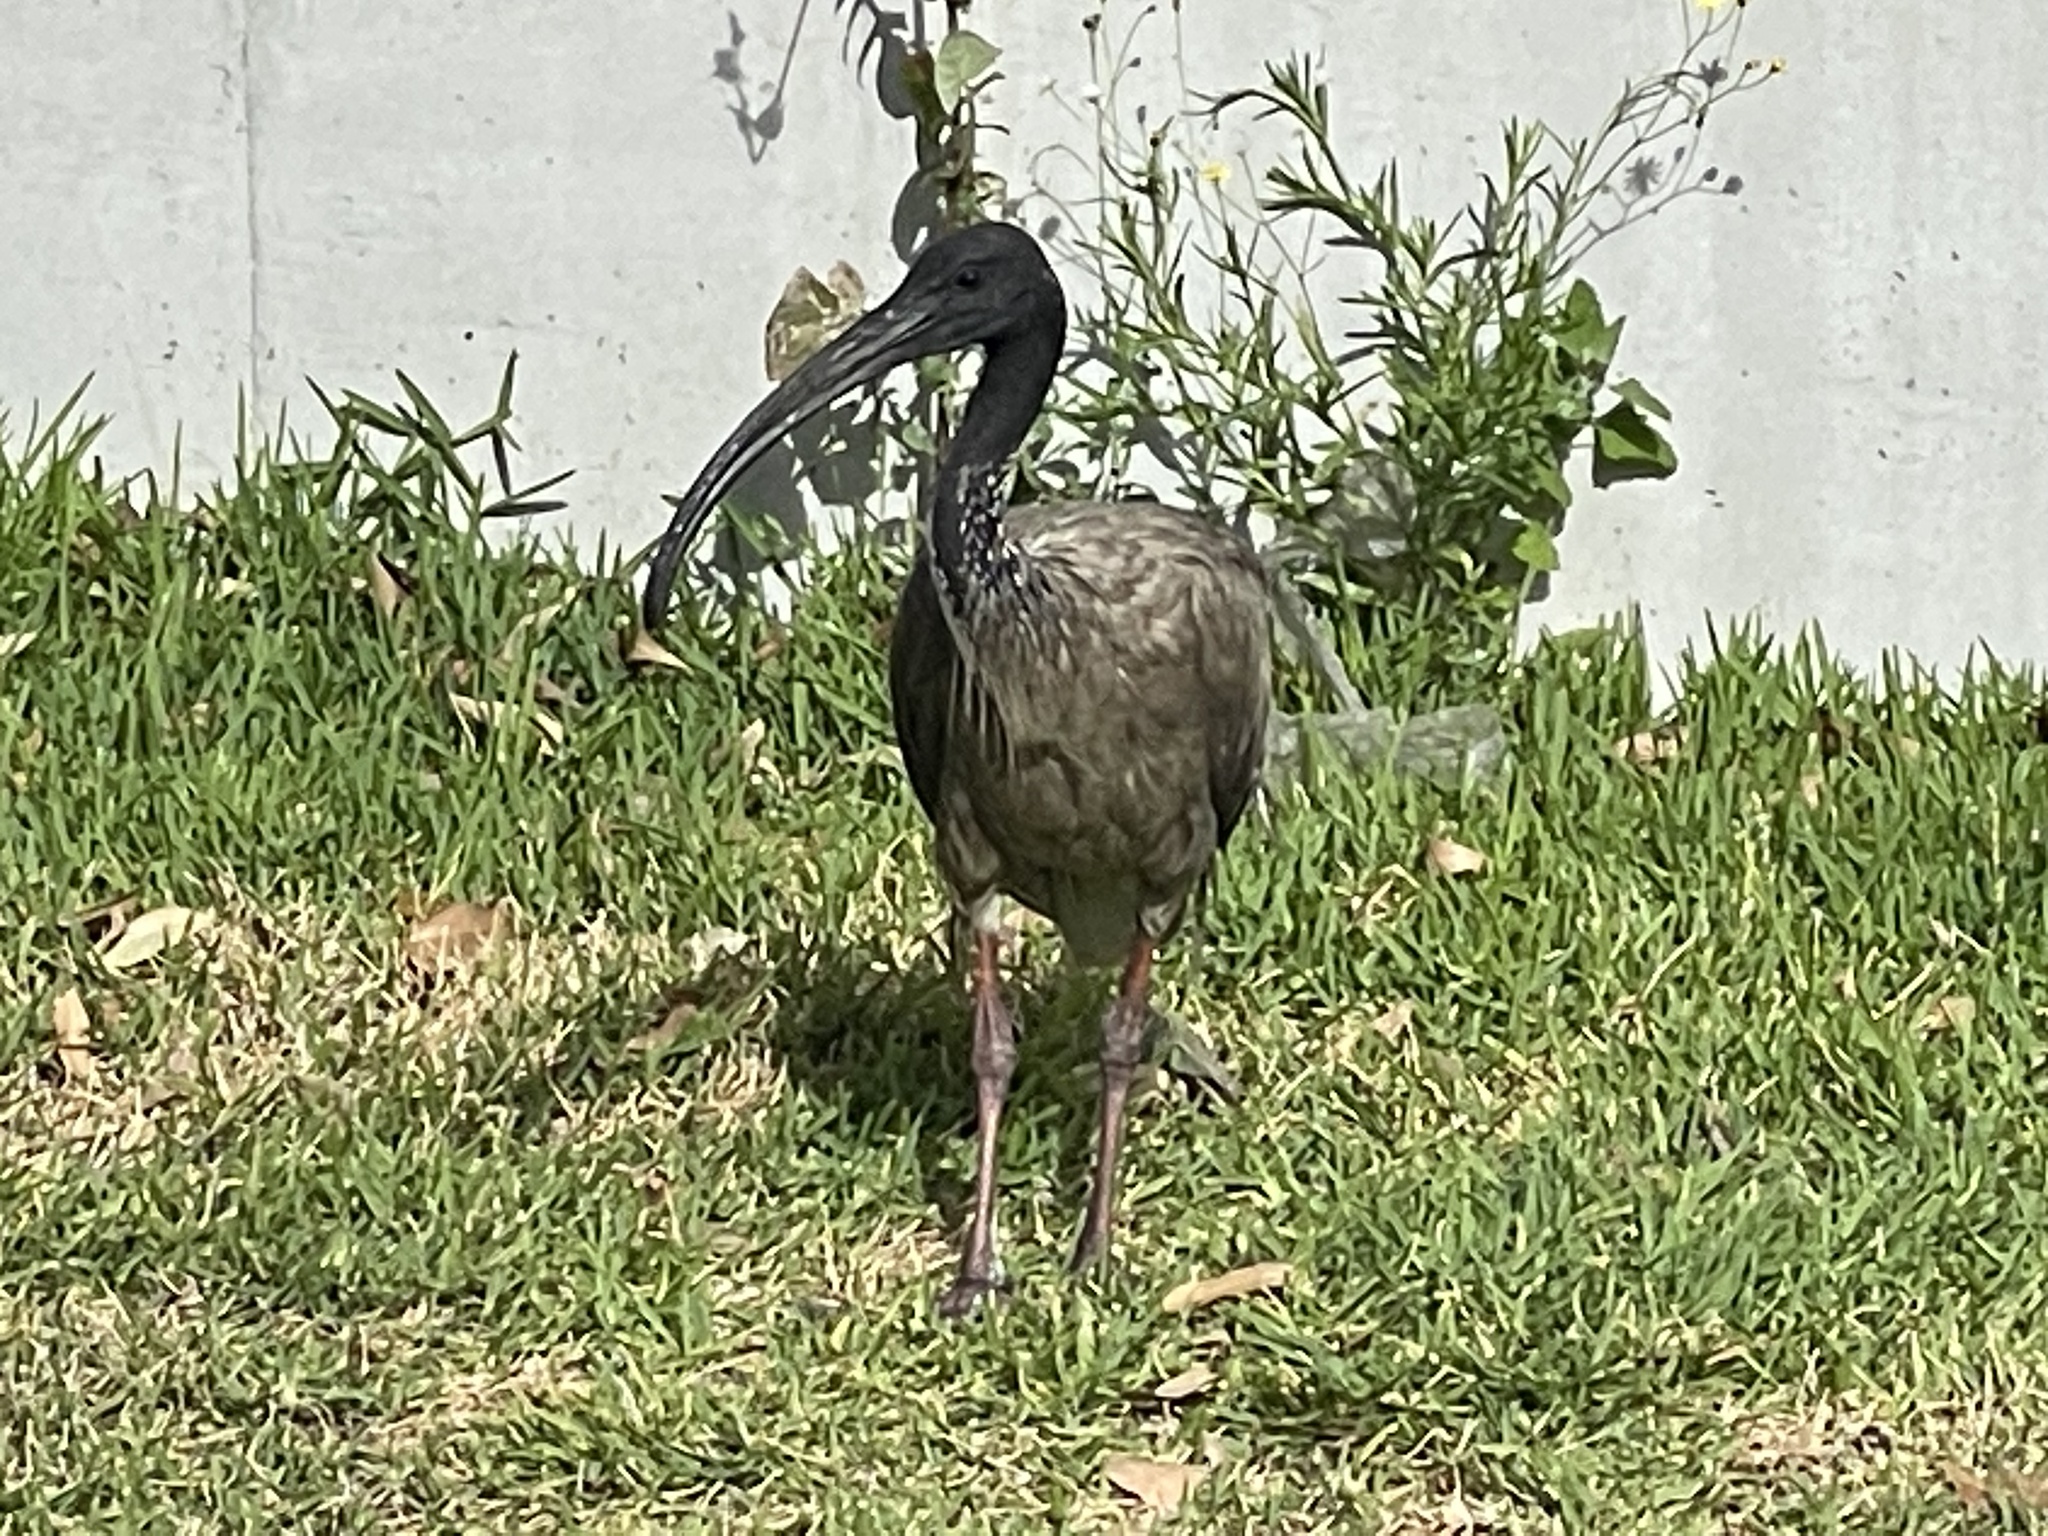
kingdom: Animalia
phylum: Chordata
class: Aves
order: Pelecaniformes
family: Threskiornithidae
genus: Threskiornis
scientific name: Threskiornis molucca
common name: Australian white ibis
